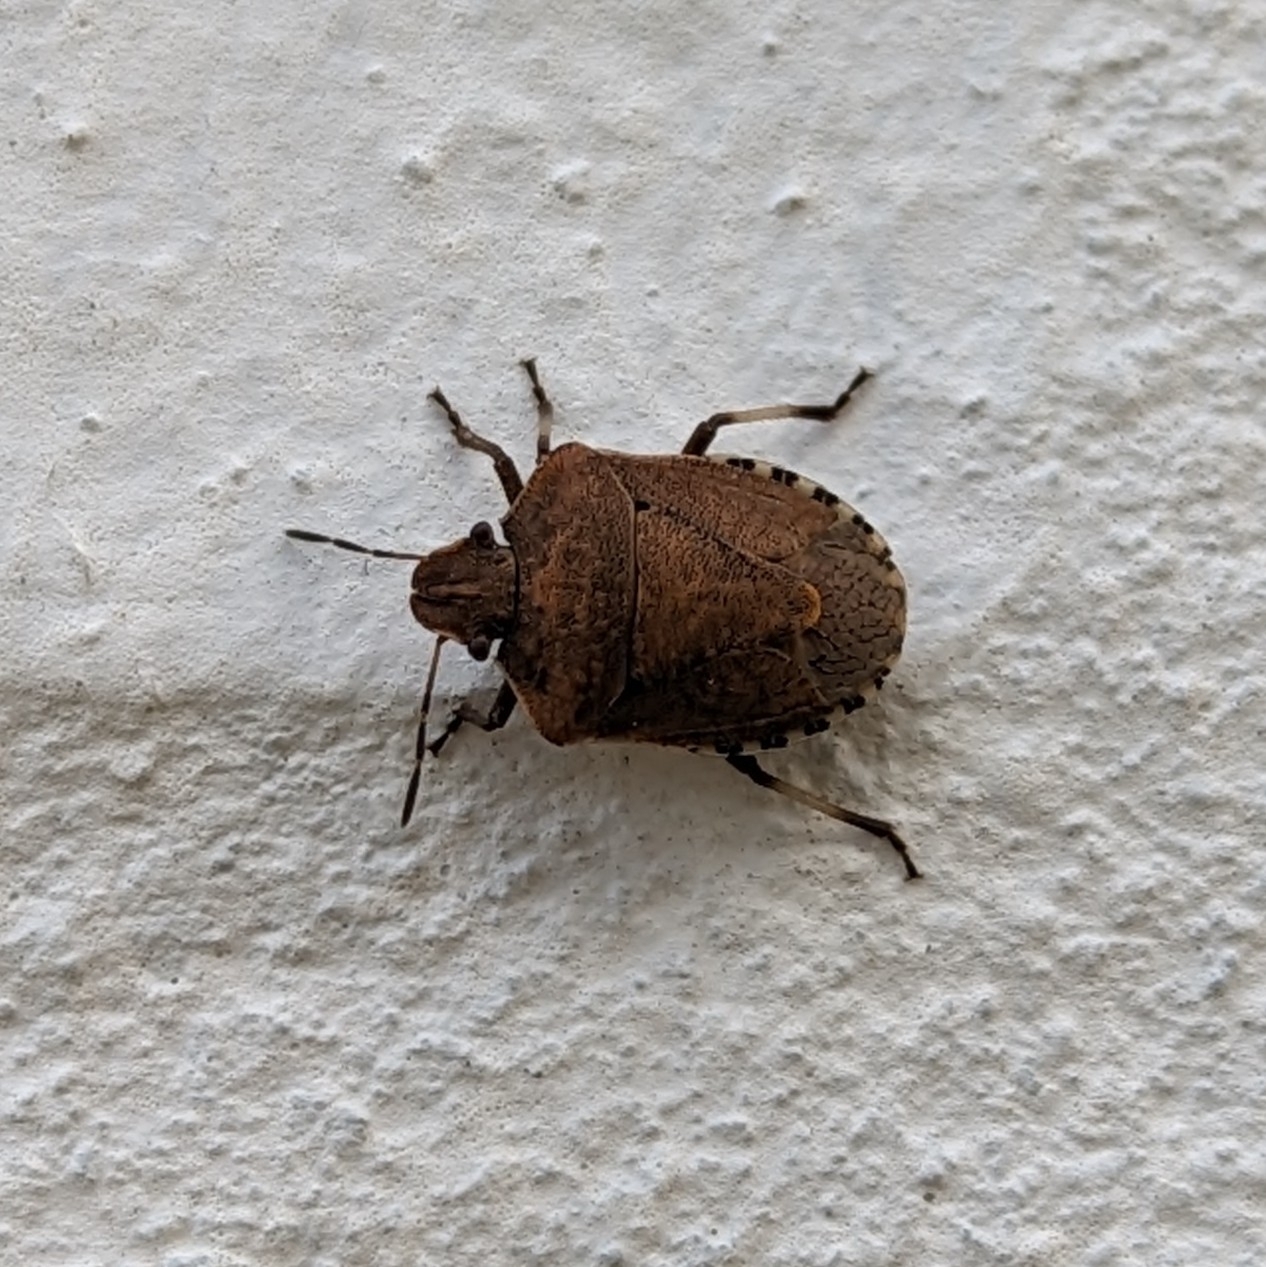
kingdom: Animalia
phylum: Arthropoda
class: Insecta
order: Hemiptera
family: Pentatomidae
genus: Dictyotus
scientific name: Dictyotus caenosus
